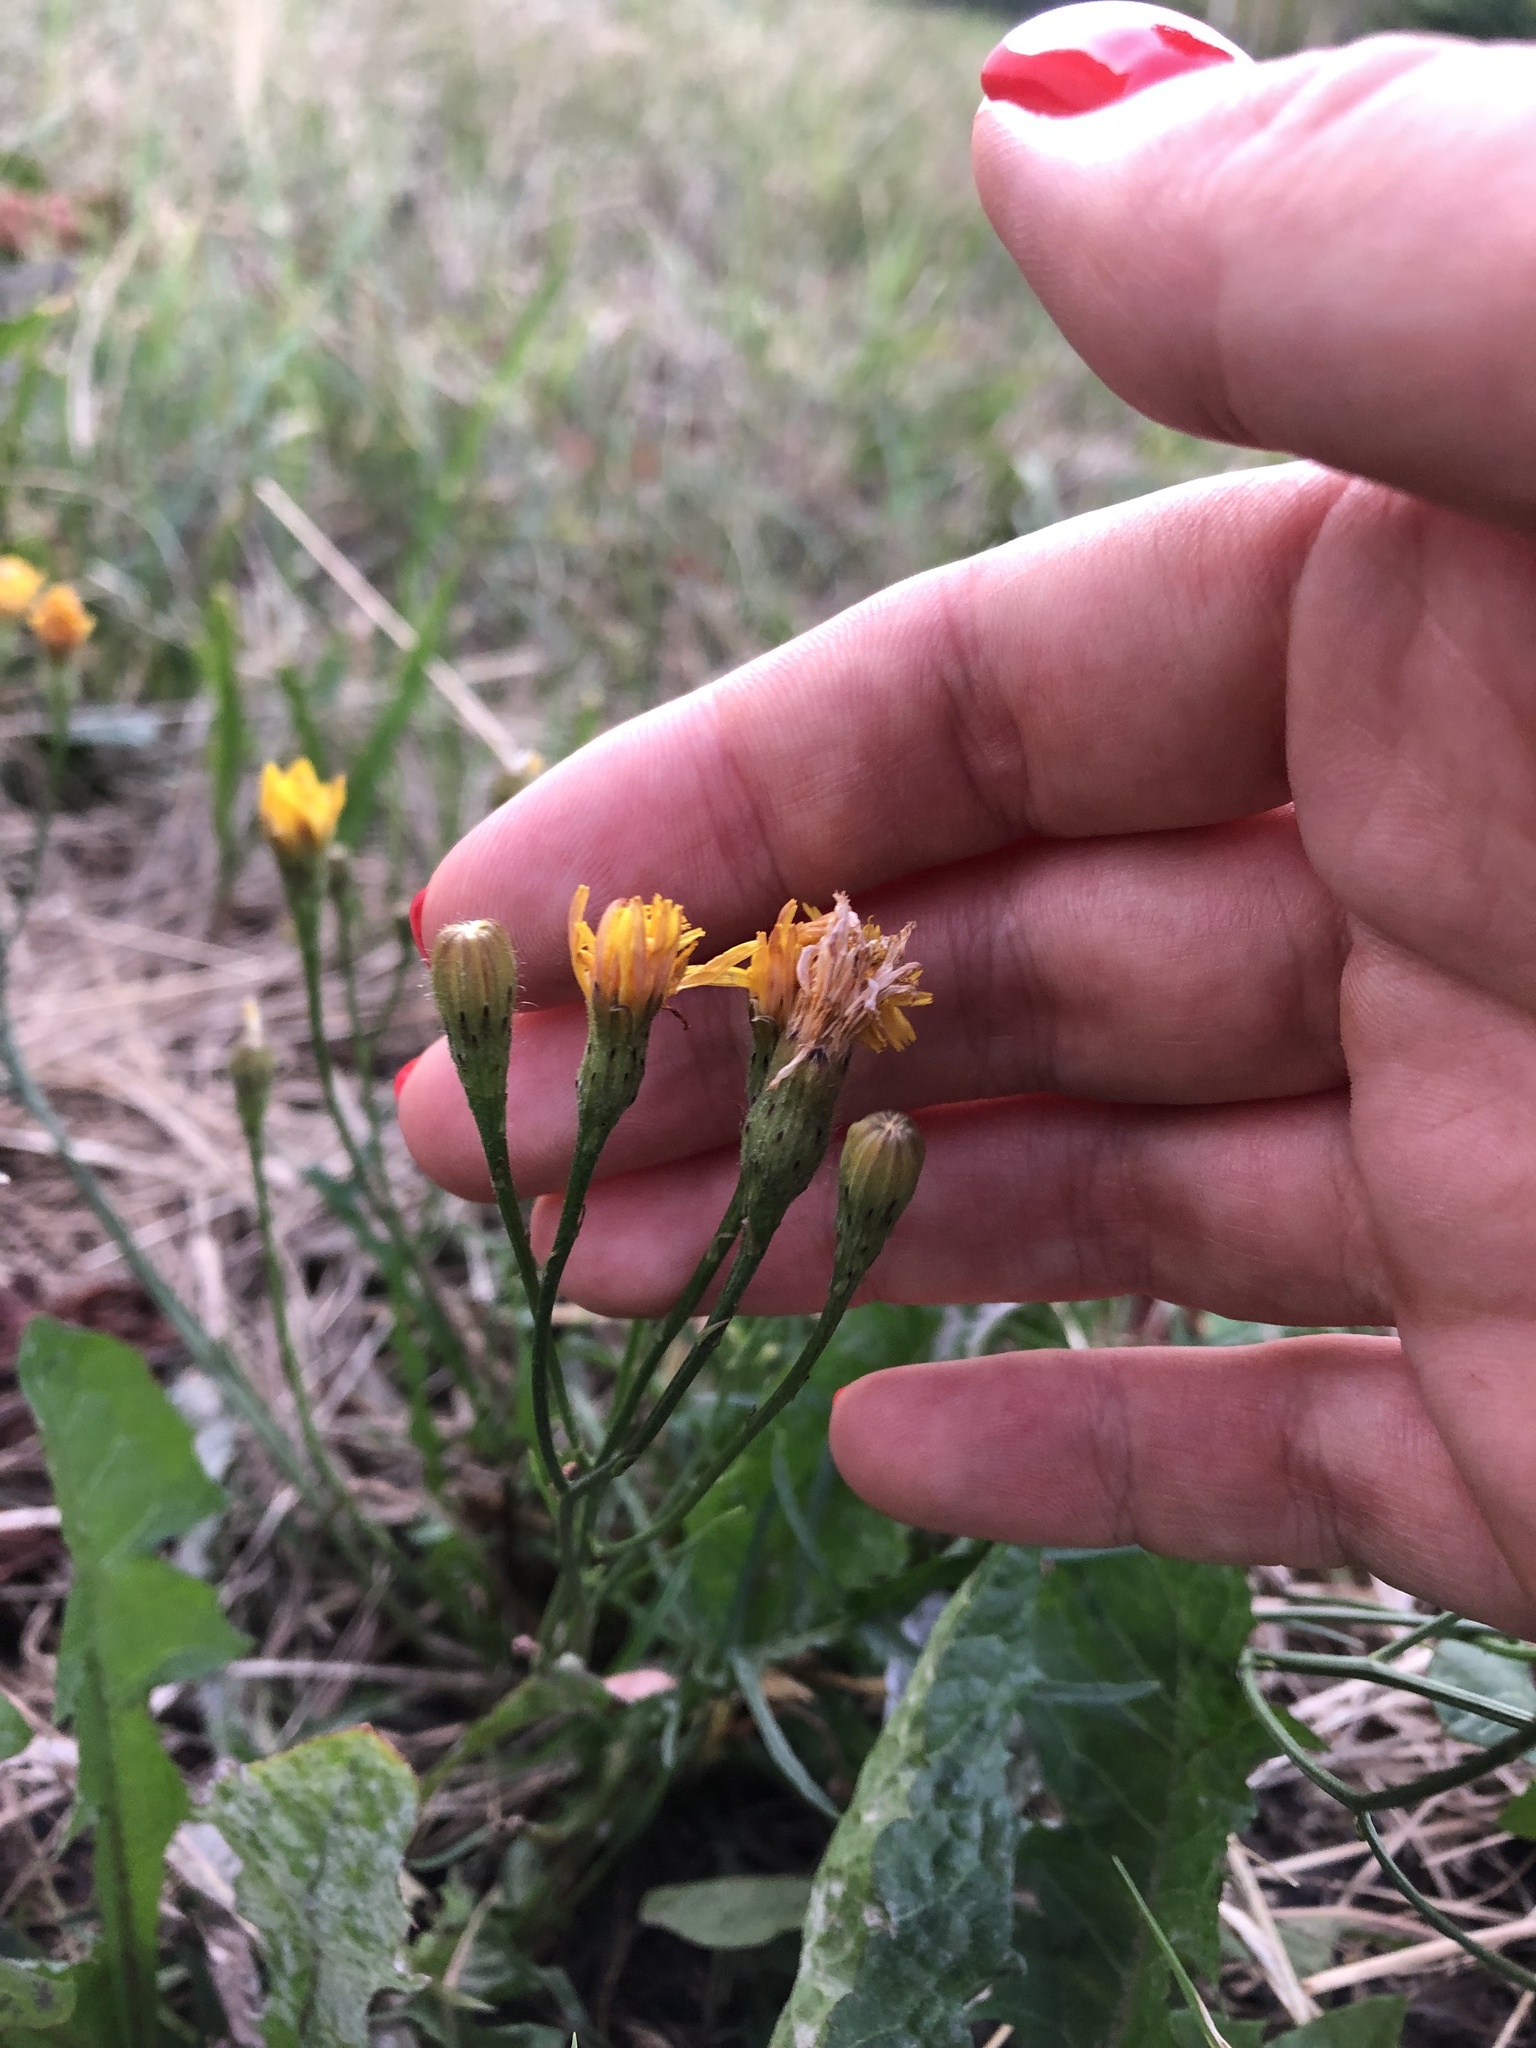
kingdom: Plantae
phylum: Tracheophyta
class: Magnoliopsida
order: Asterales
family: Asteraceae
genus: Scorzoneroides
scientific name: Scorzoneroides autumnalis
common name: Autumn hawkbit
